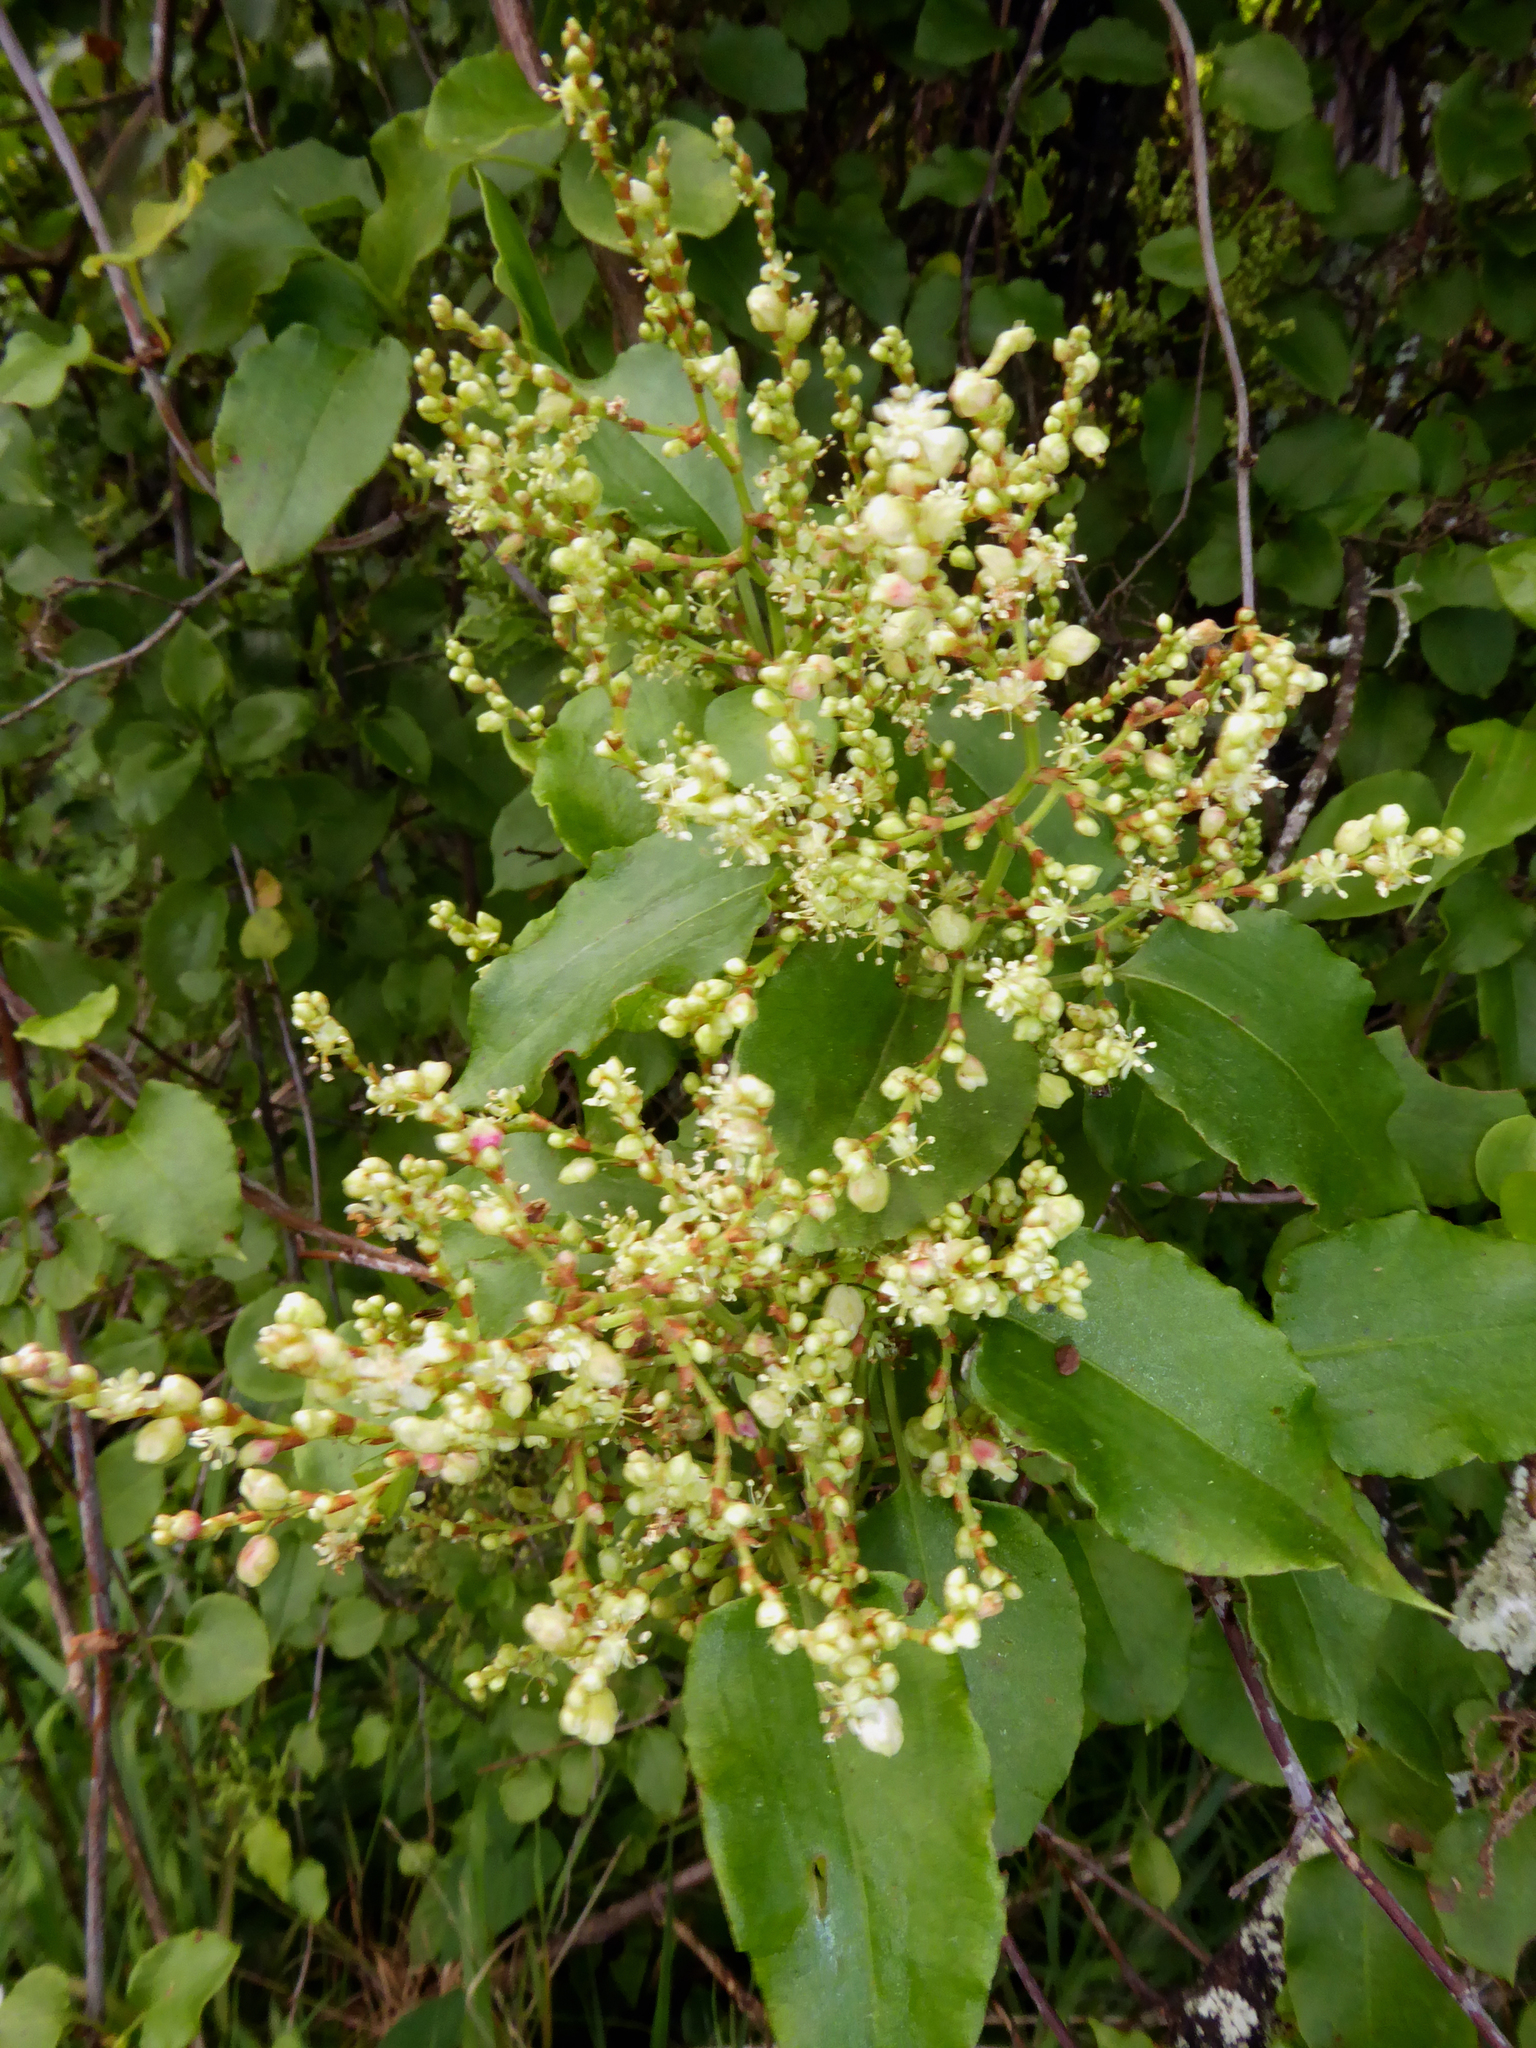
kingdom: Plantae
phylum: Tracheophyta
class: Magnoliopsida
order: Caryophyllales
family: Polygonaceae
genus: Muehlenbeckia
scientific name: Muehlenbeckia australis
